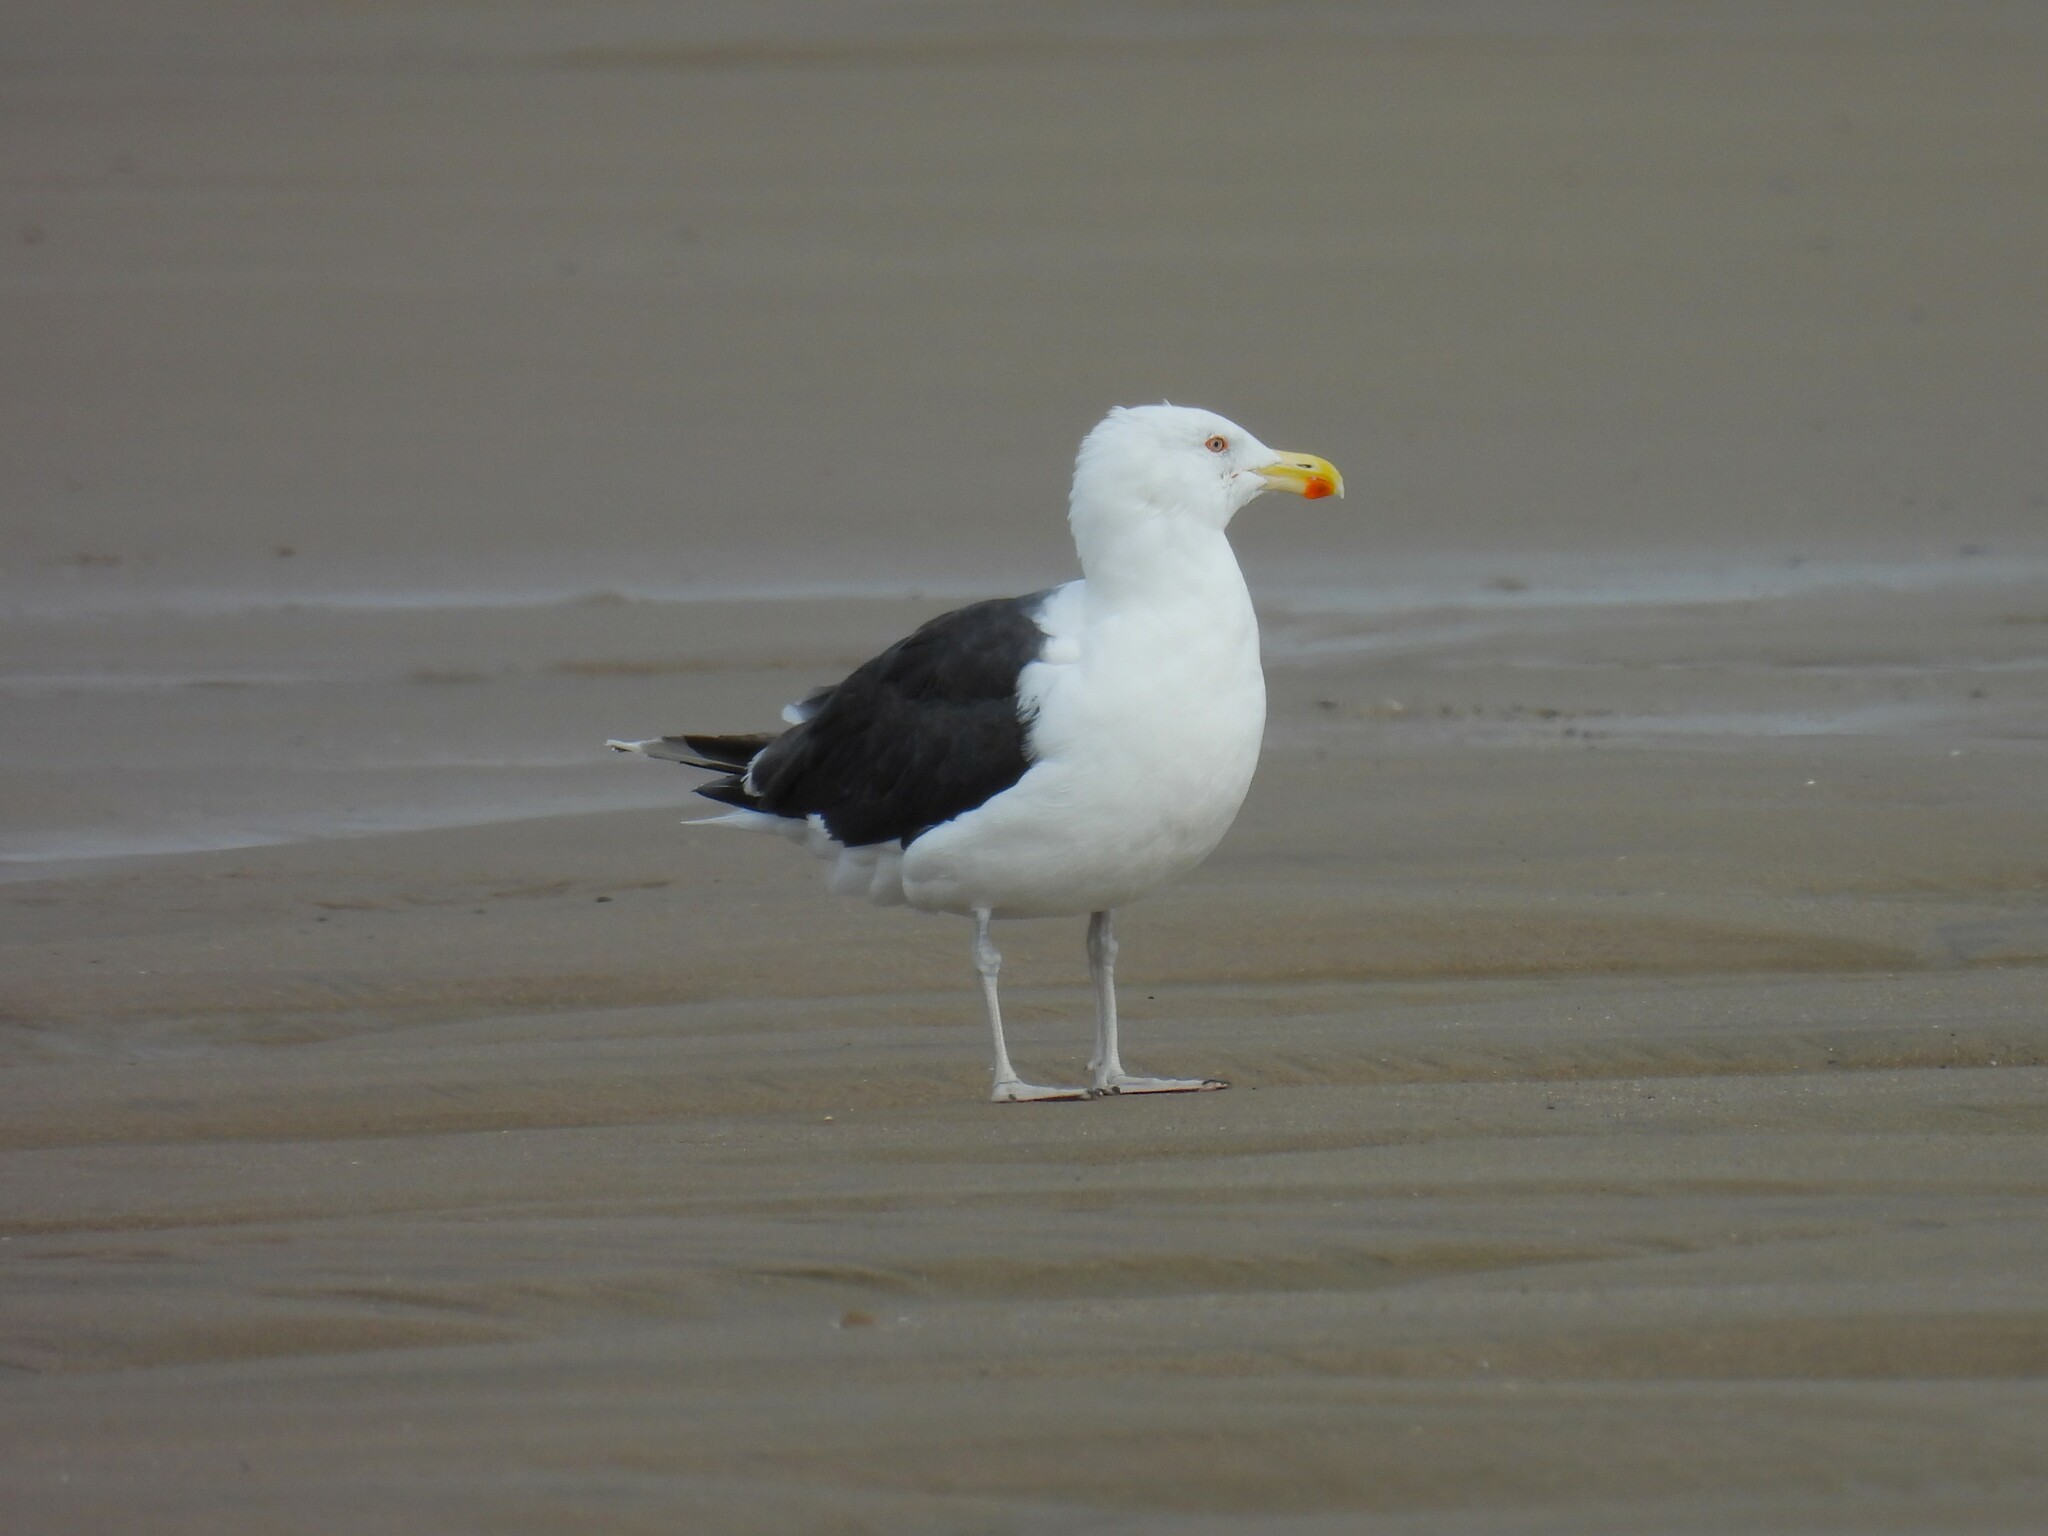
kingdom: Animalia
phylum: Chordata
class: Aves
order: Charadriiformes
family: Laridae
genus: Larus
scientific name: Larus marinus
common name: Great black-backed gull
